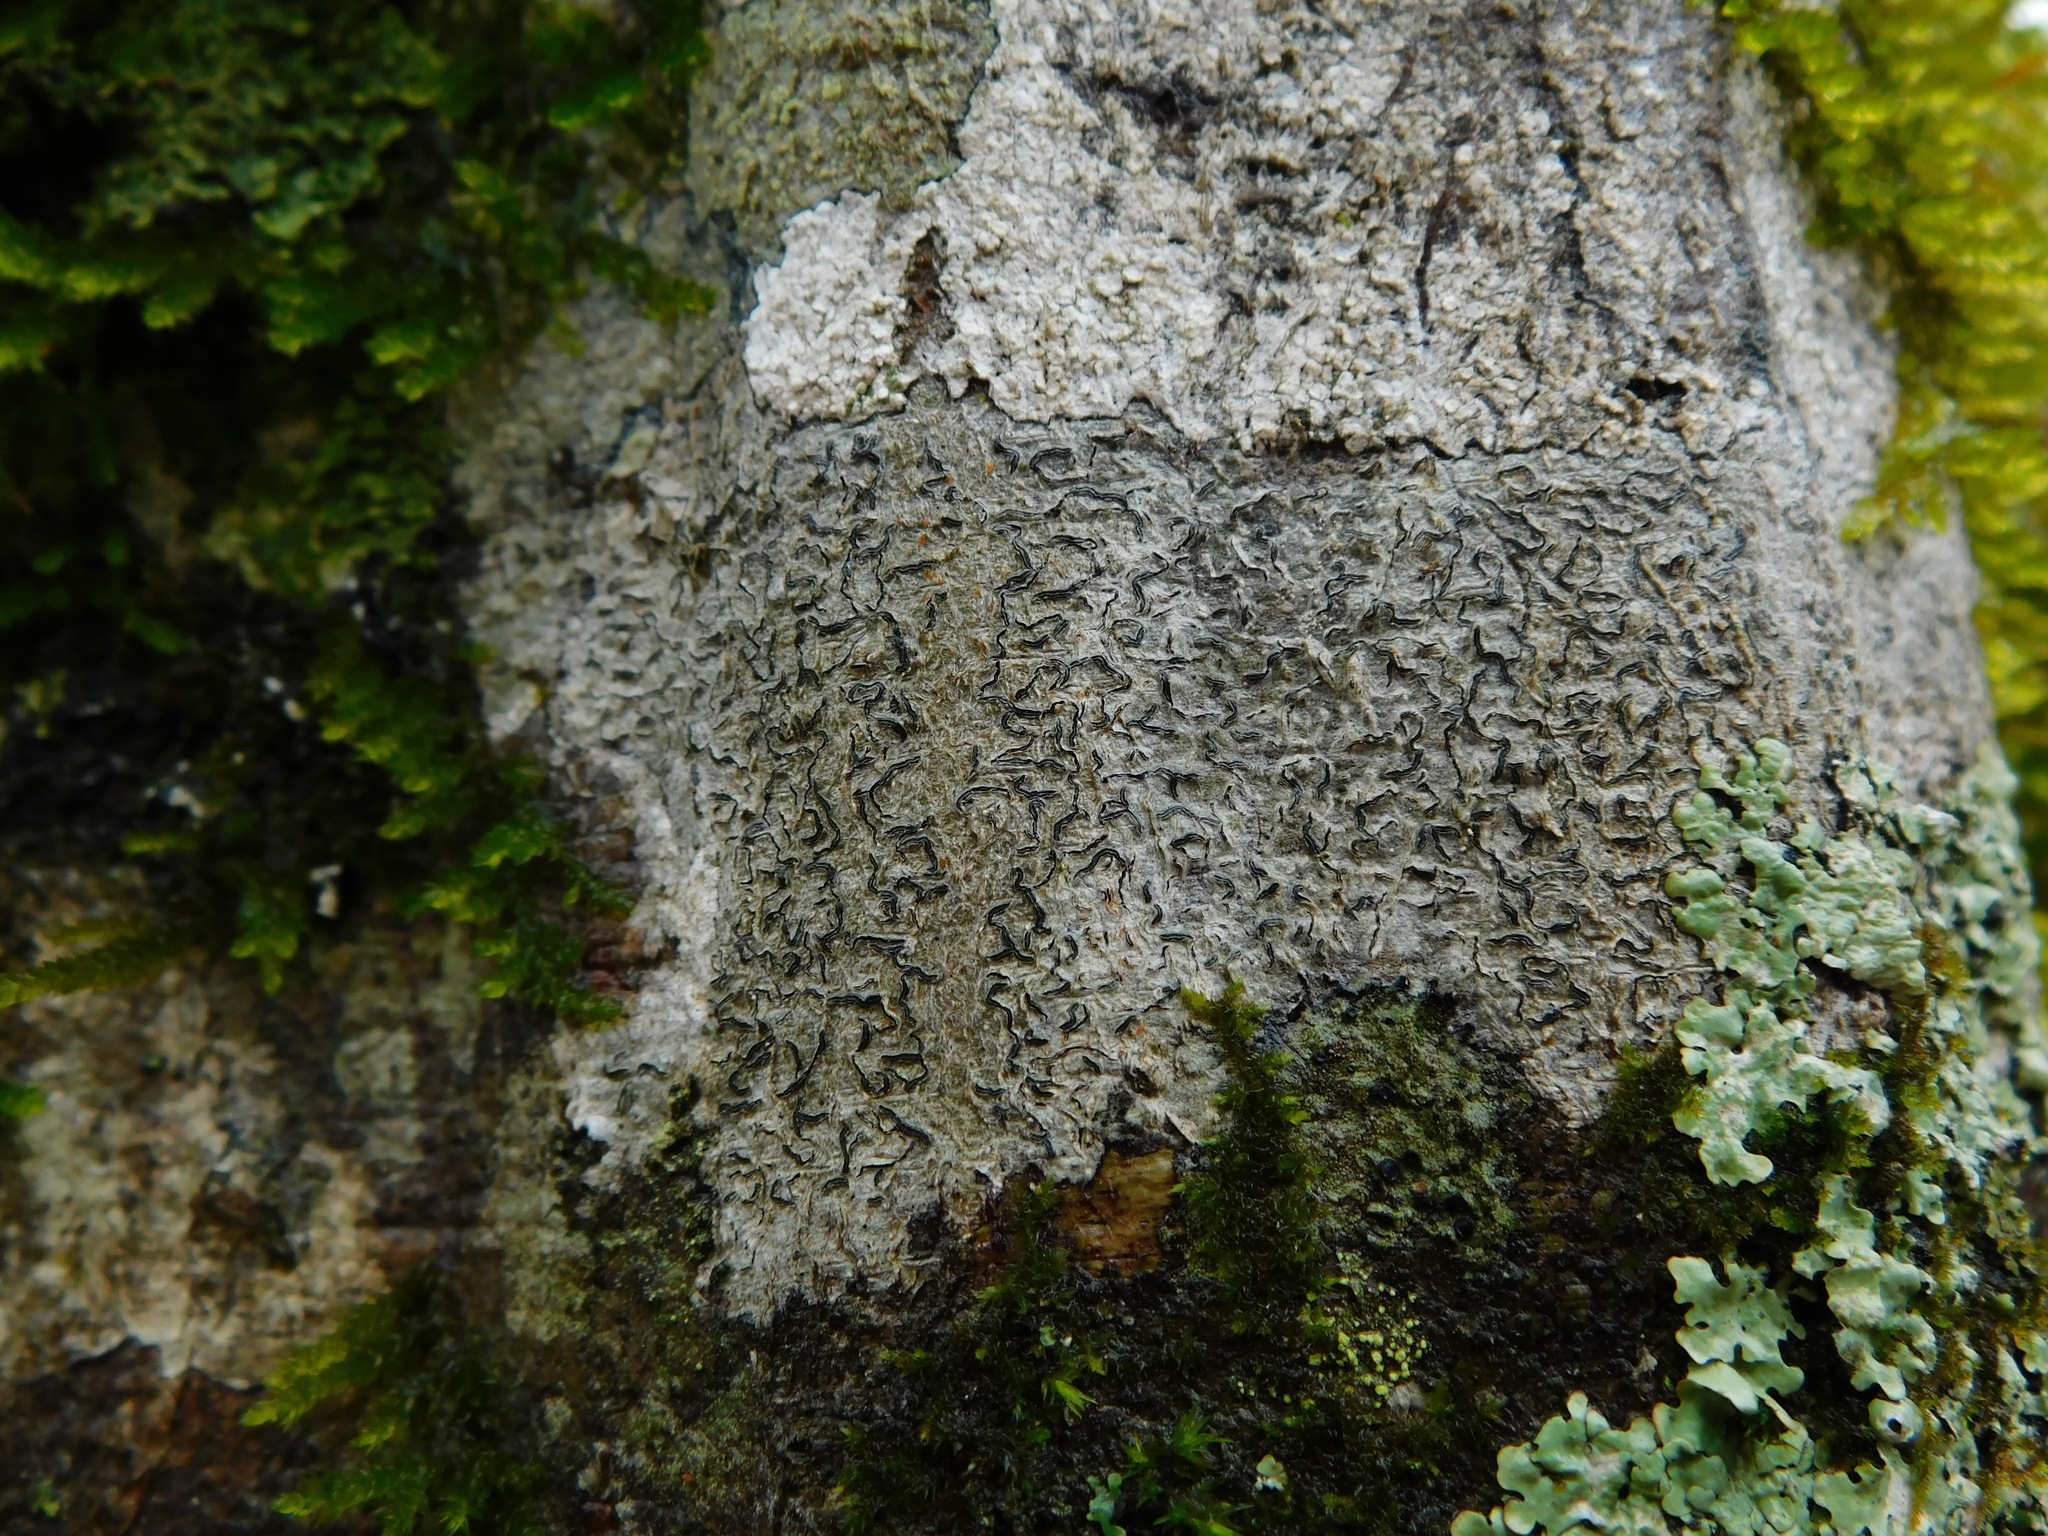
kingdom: Fungi
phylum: Ascomycota
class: Lecanoromycetes
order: Ostropales
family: Graphidaceae
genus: Graphis
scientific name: Graphis scripta
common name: Script lichen
